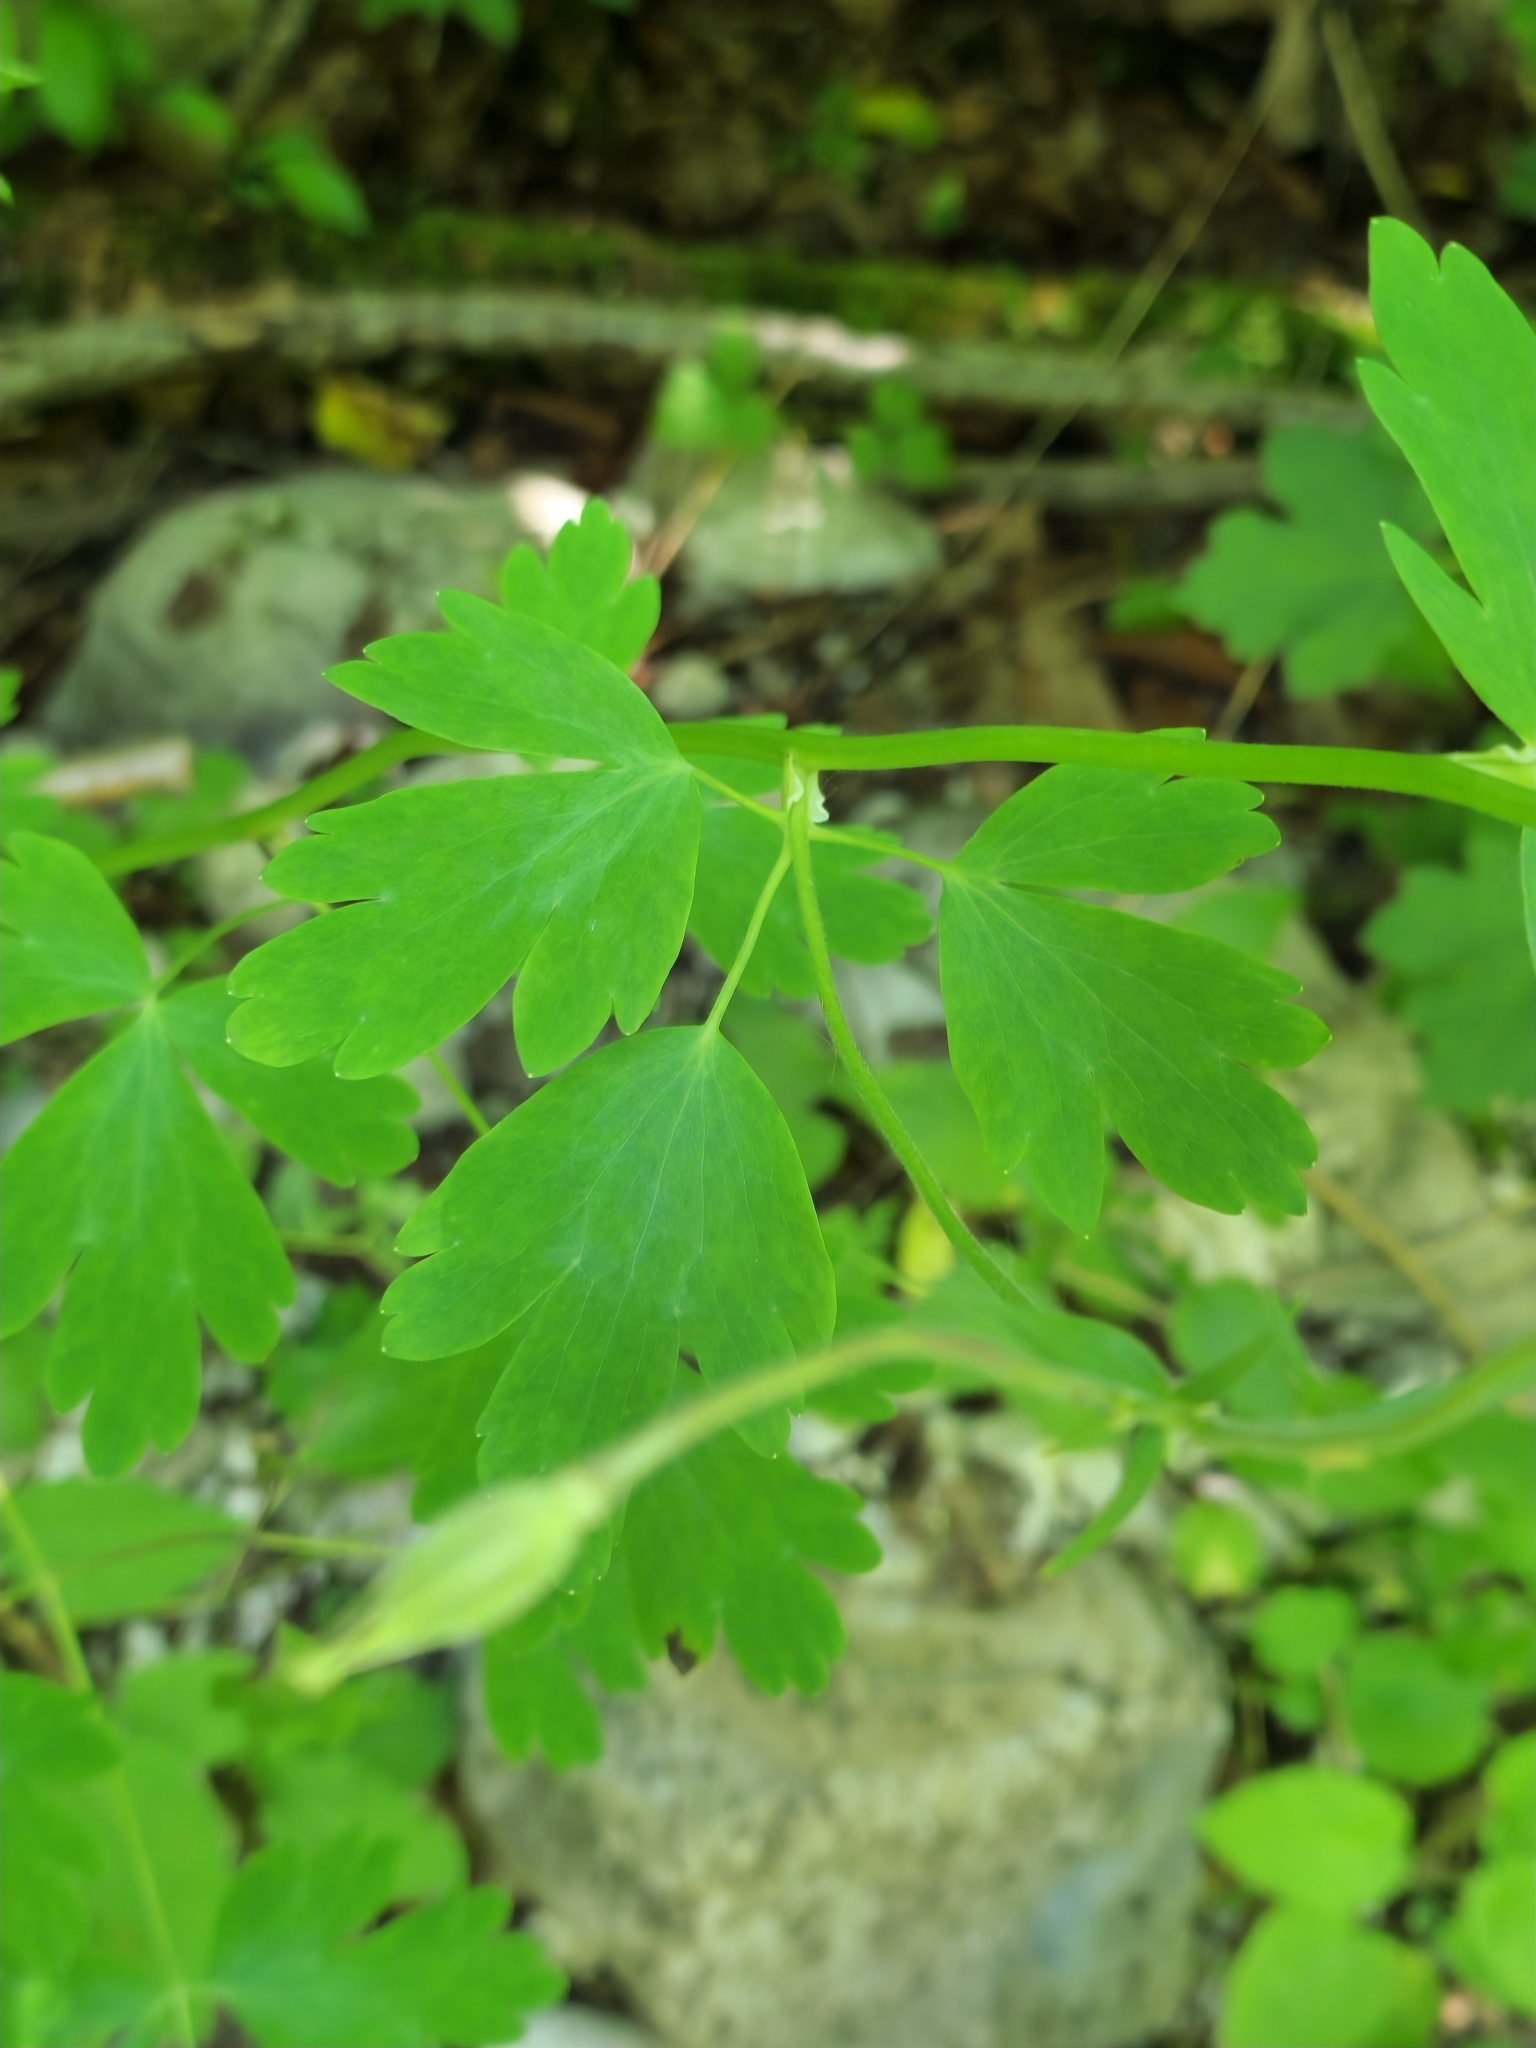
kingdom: Plantae
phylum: Tracheophyta
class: Magnoliopsida
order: Ranunculales
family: Ranunculaceae
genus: Aquilegia
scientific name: Aquilegia olympica
